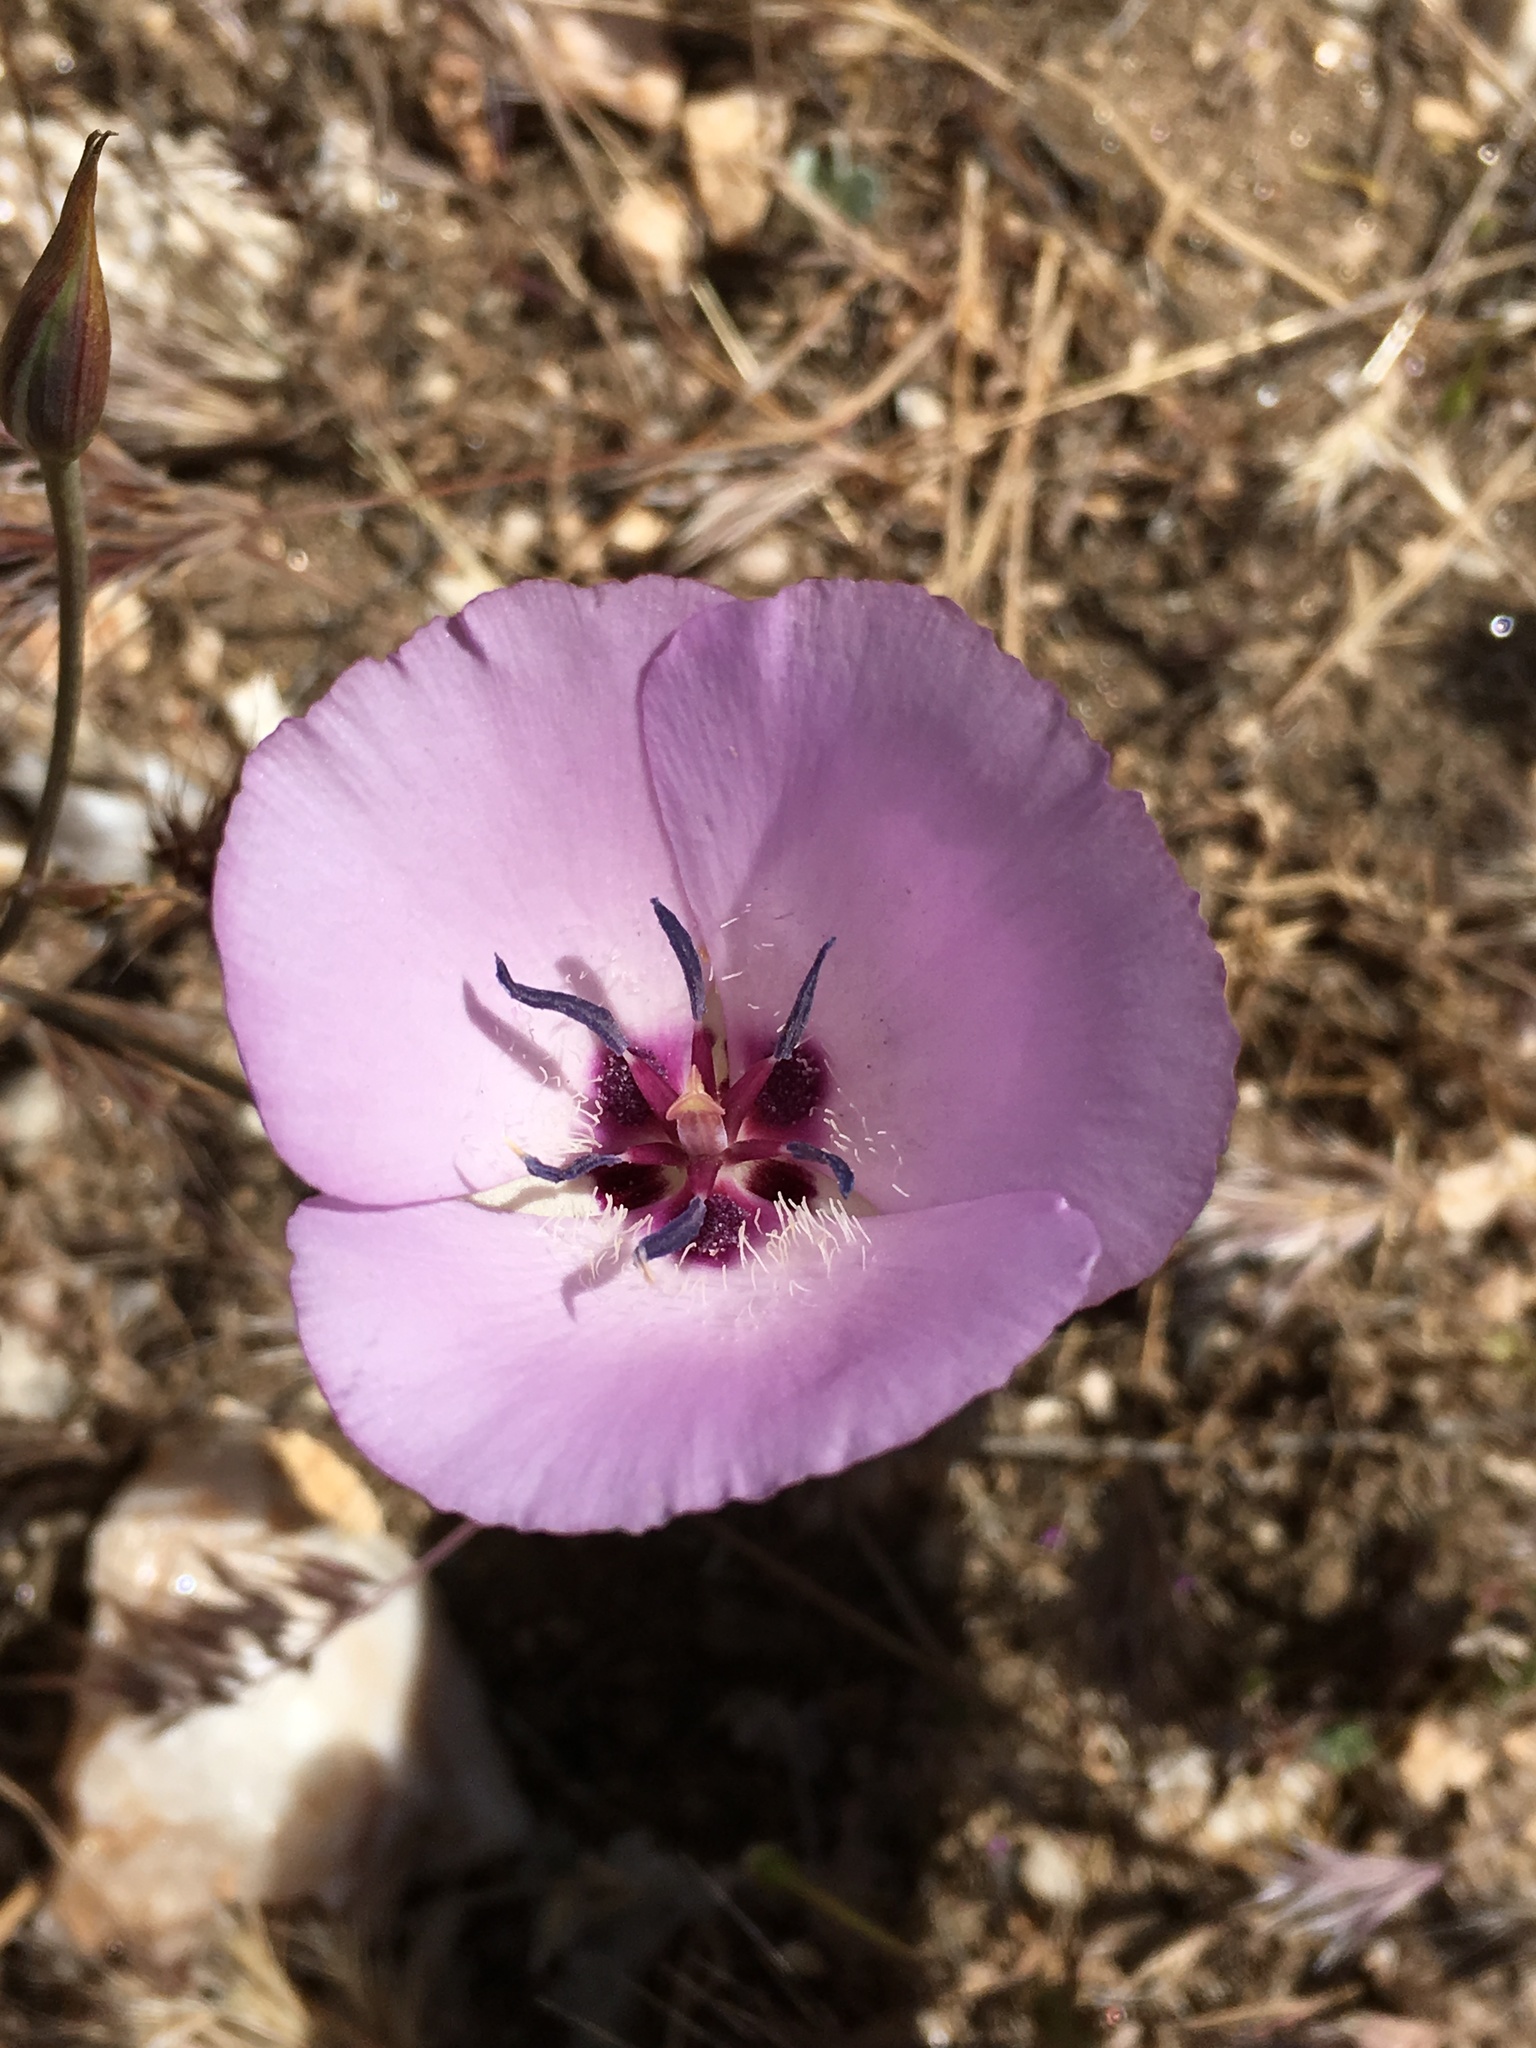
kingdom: Plantae
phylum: Tracheophyta
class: Liliopsida
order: Liliales
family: Liliaceae
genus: Calochortus
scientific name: Calochortus splendens
